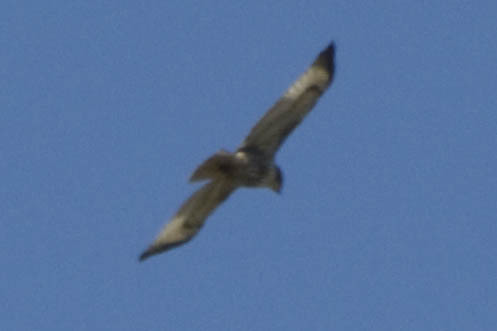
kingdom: Animalia
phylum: Chordata
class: Aves
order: Accipitriformes
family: Accipitridae
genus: Buteo
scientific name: Buteo jamaicensis
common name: Red-tailed hawk
